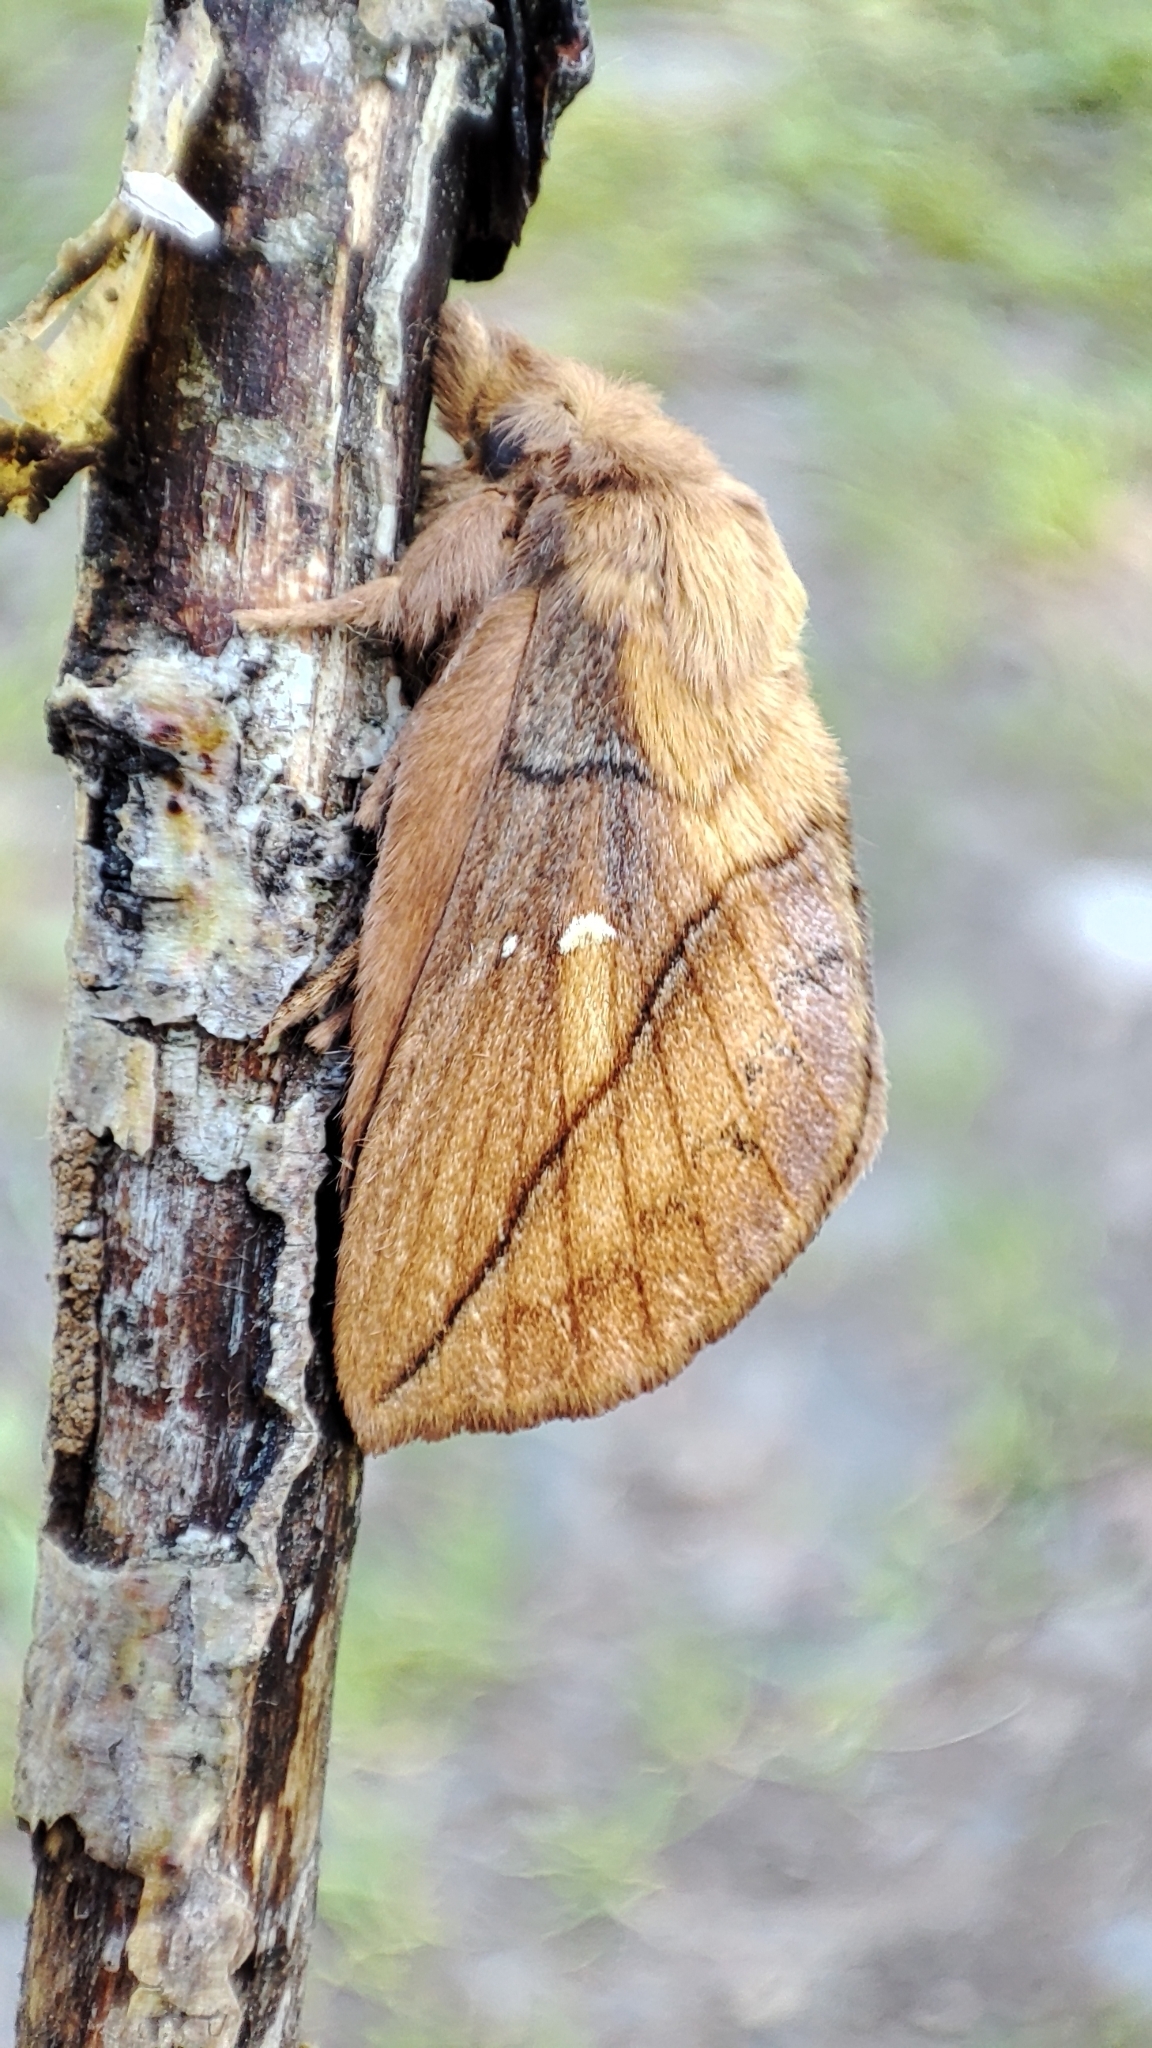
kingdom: Animalia
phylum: Arthropoda
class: Insecta
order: Lepidoptera
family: Lasiocampidae
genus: Euthrix
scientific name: Euthrix potatoria
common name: Drinker
